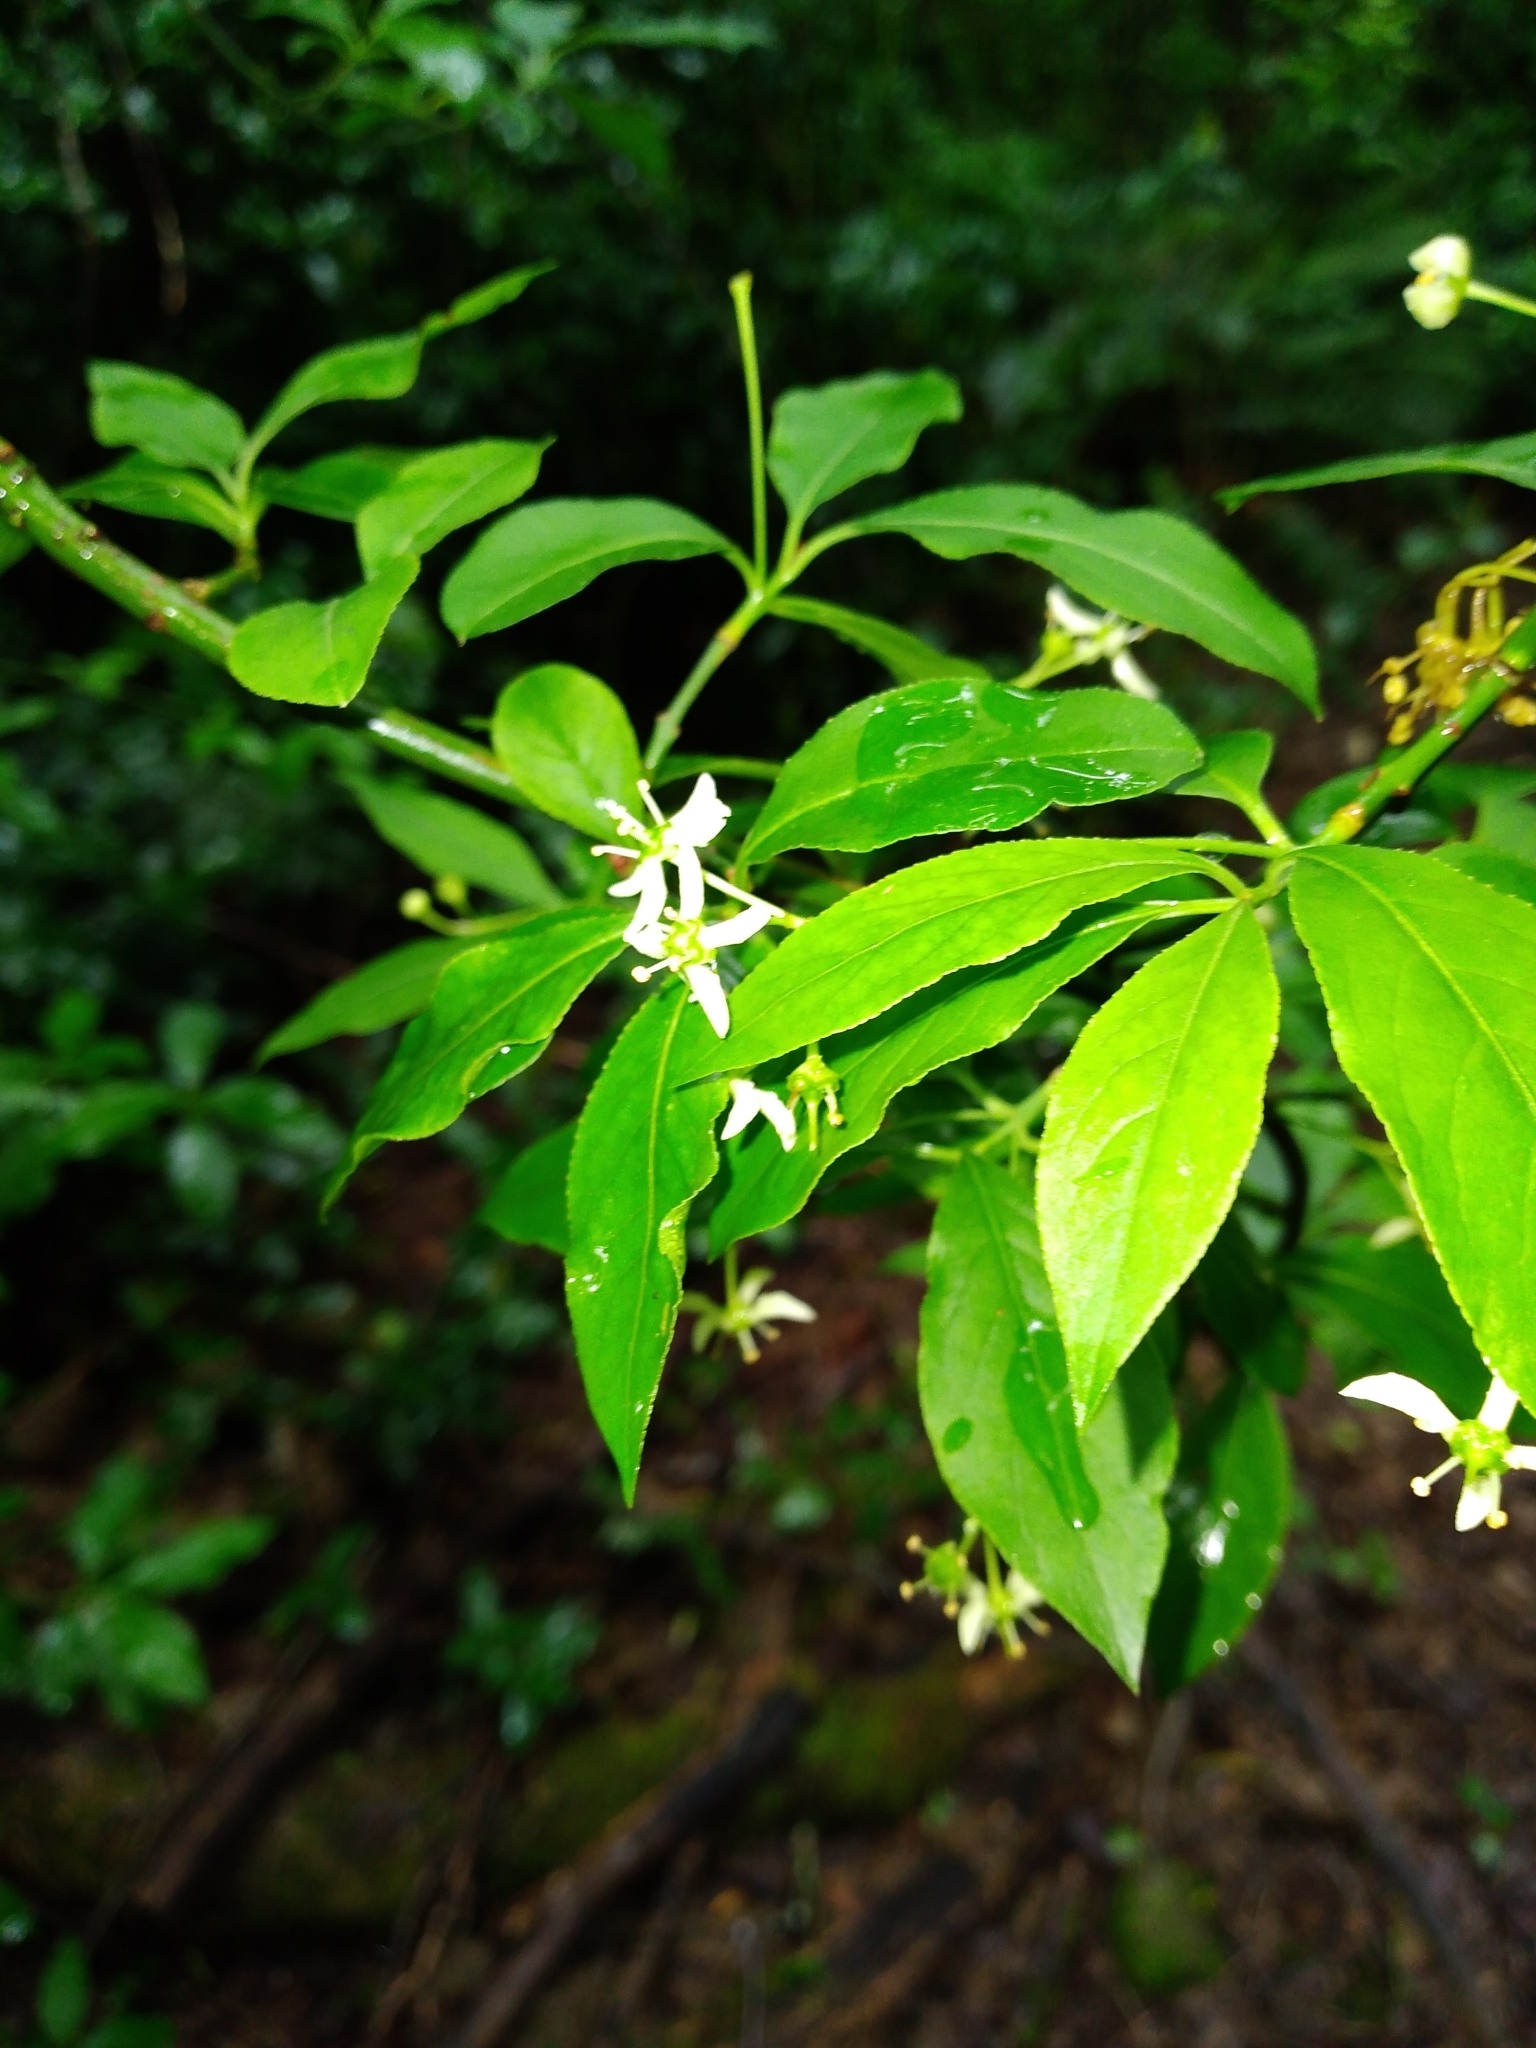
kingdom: Plantae
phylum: Tracheophyta
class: Magnoliopsida
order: Celastrales
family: Celastraceae
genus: Euonymus
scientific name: Euonymus europaeus
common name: Spindle
